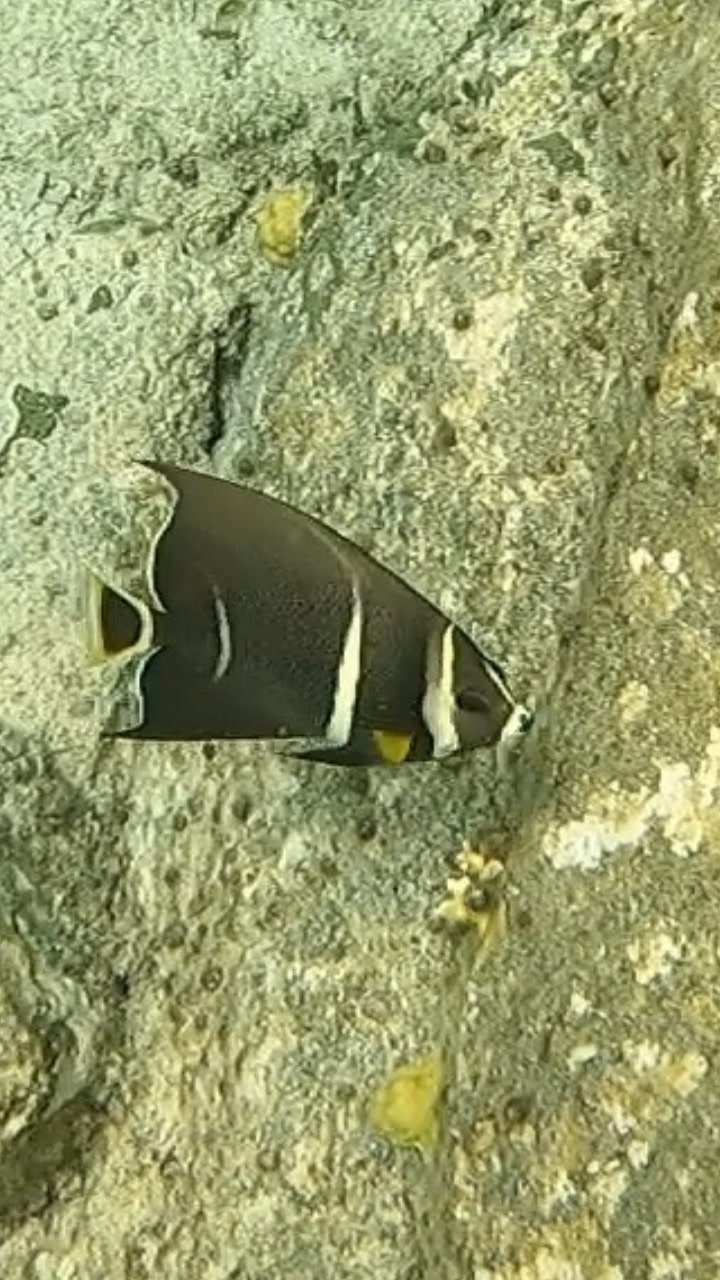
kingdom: Animalia
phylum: Chordata
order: Perciformes
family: Pomacanthidae
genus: Pomacanthus
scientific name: Pomacanthus arcuatus
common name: Gray angelfish
